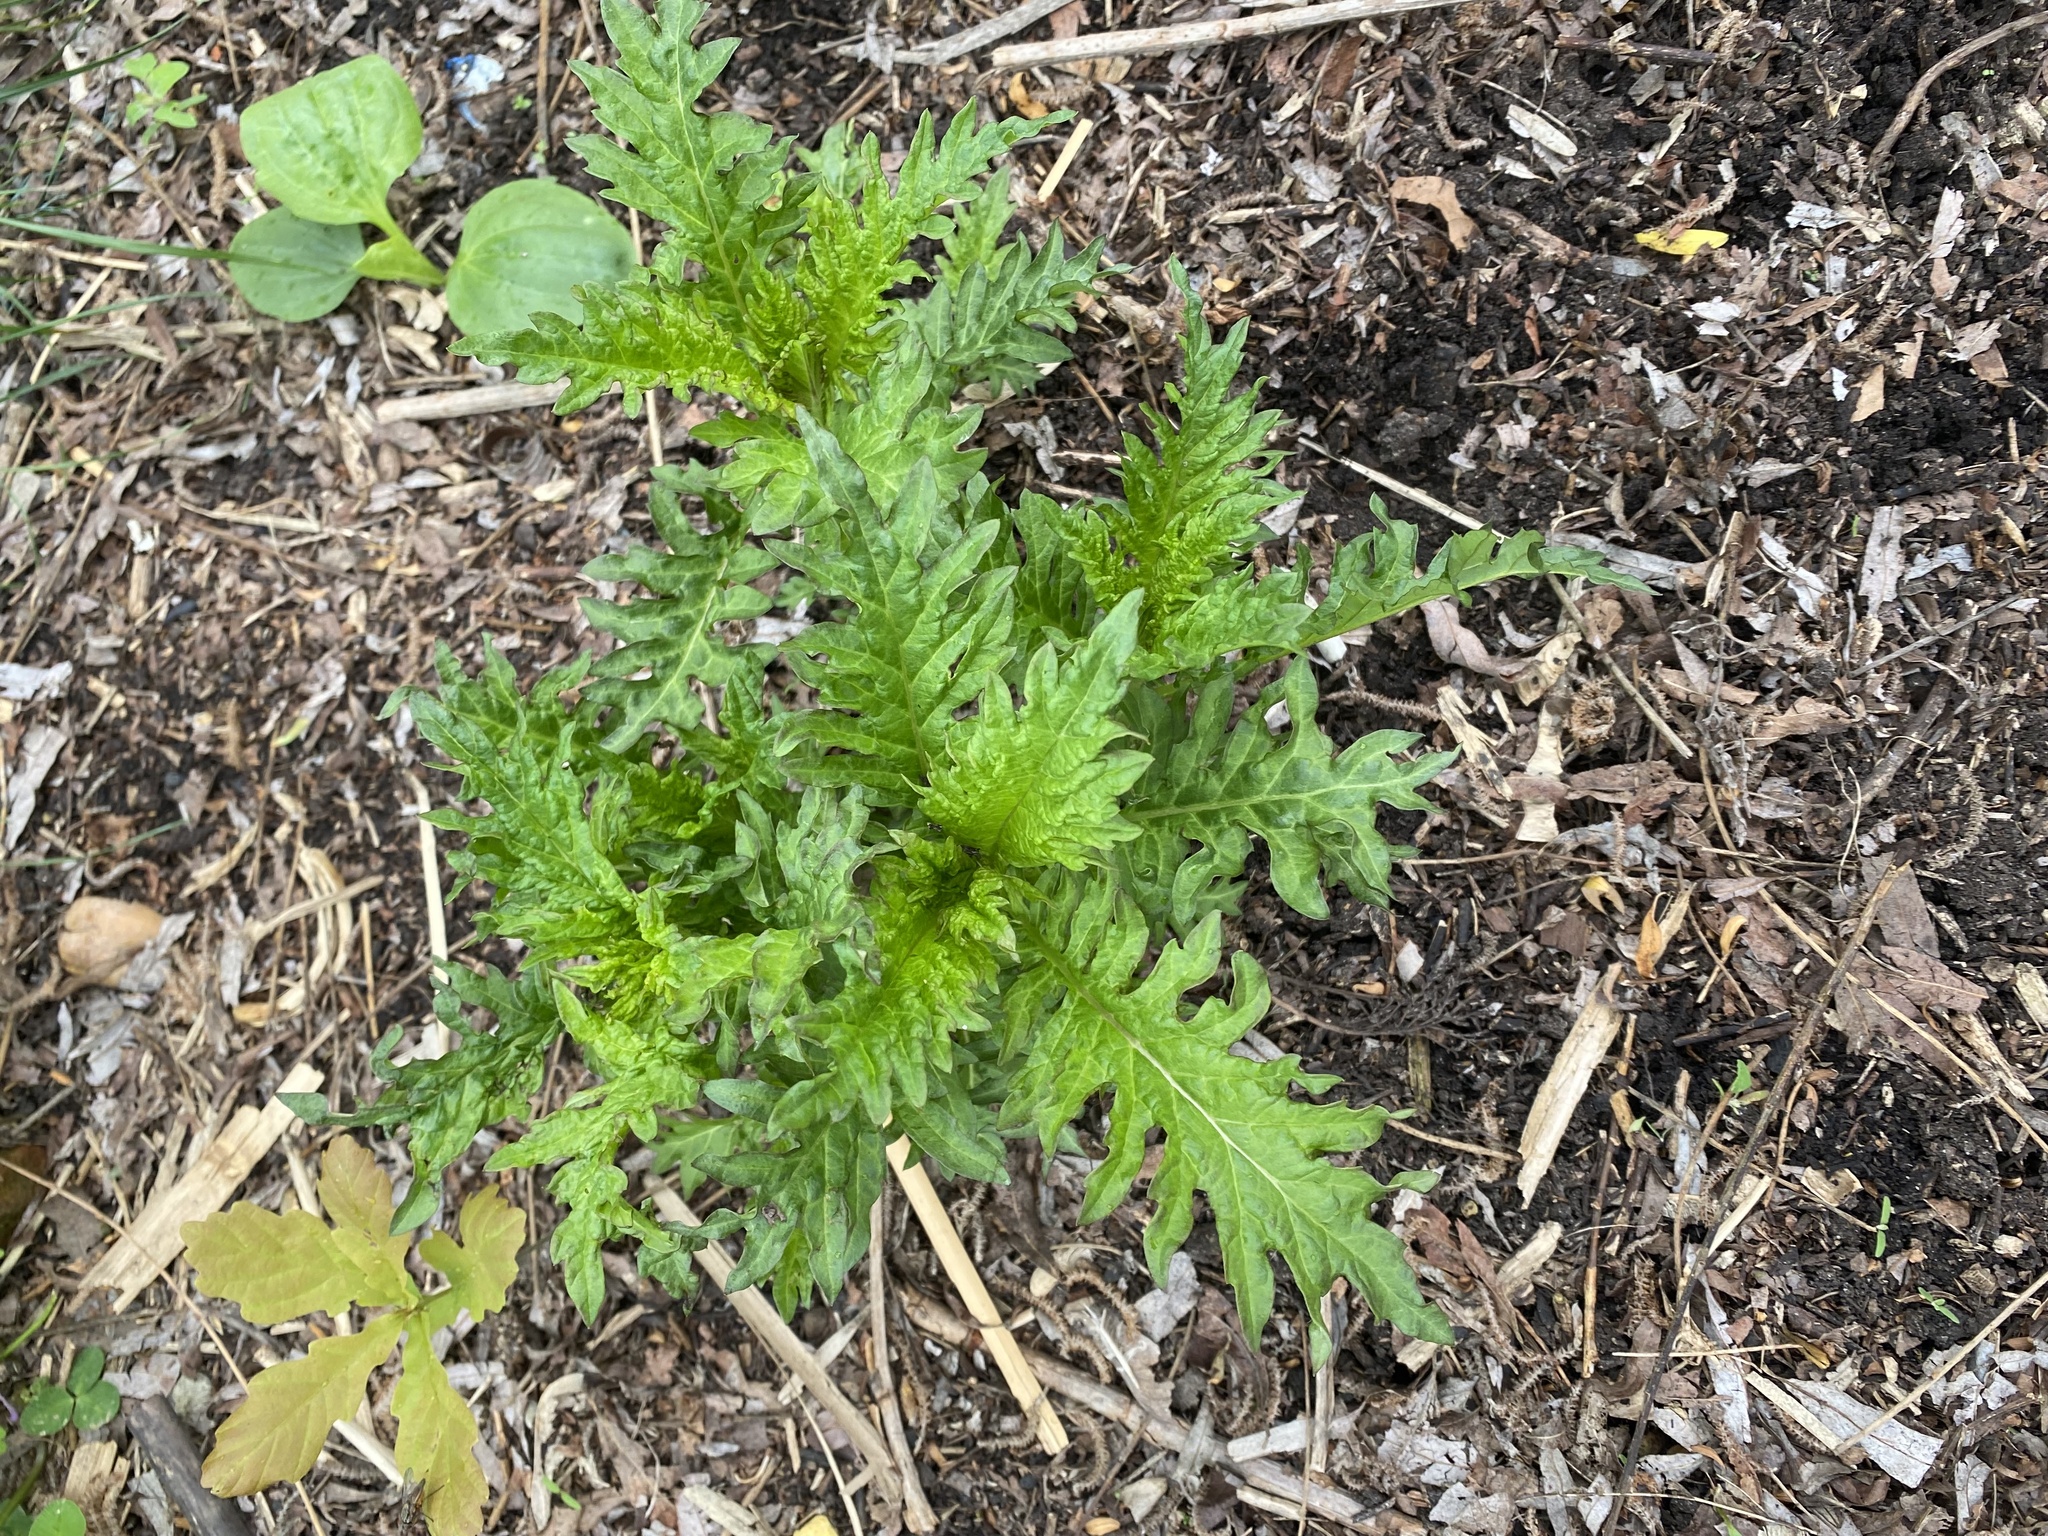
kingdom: Plantae
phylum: Tracheophyta
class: Magnoliopsida
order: Lamiales
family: Lamiaceae
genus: Lycopus
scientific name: Lycopus europaeus
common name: European bugleweed
